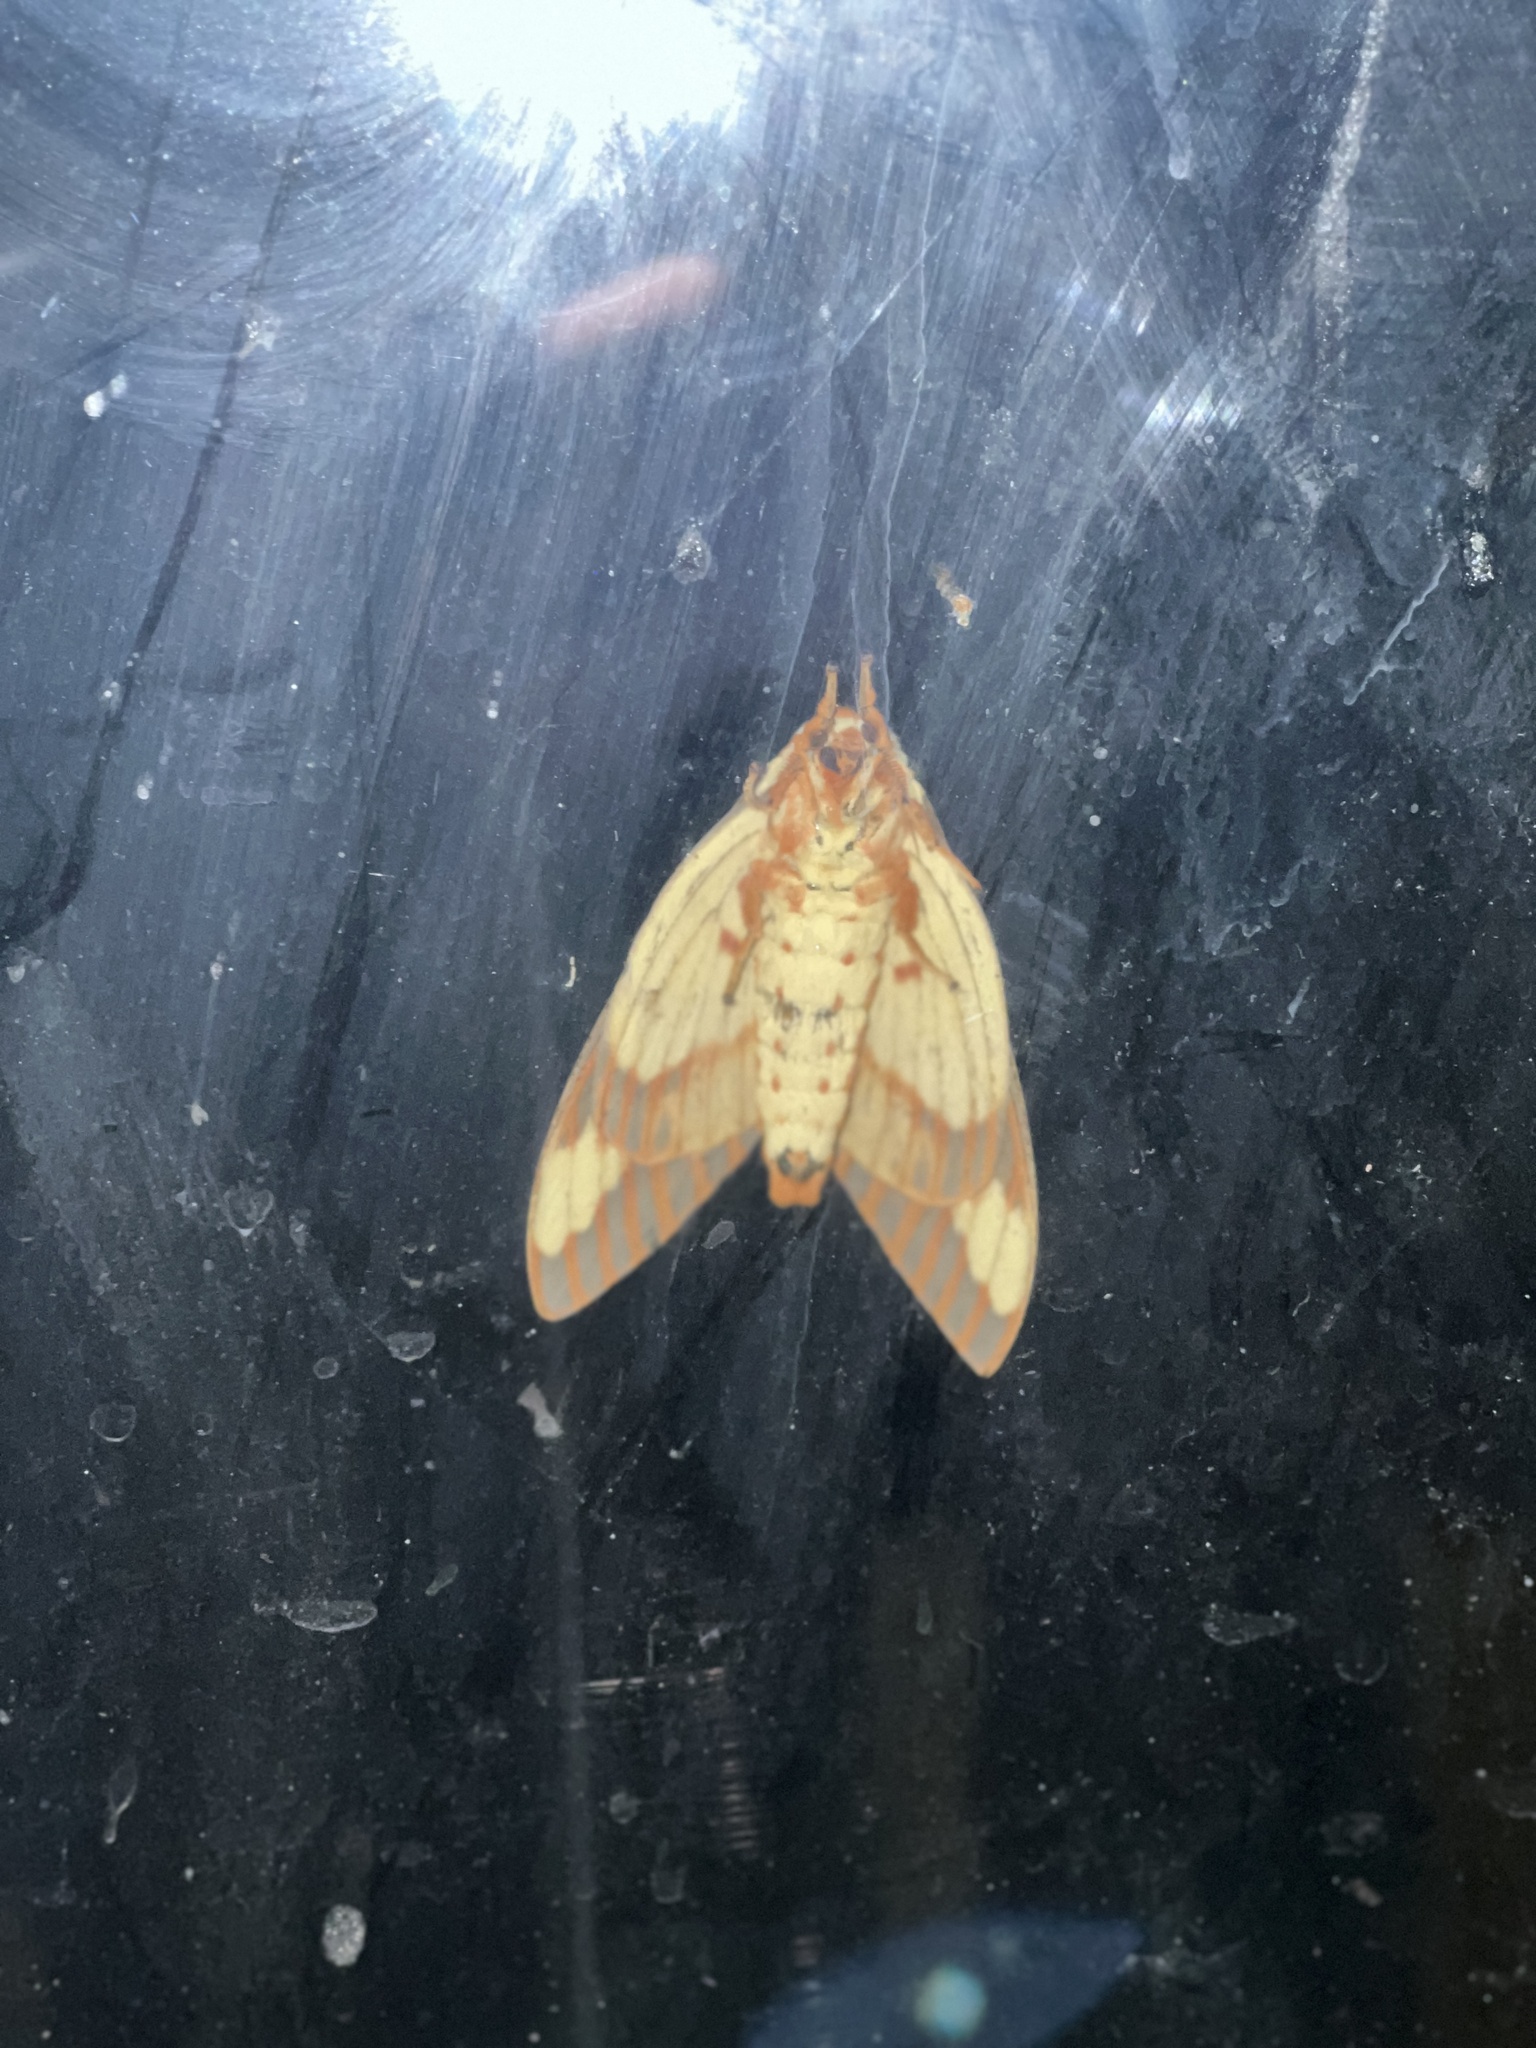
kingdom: Animalia
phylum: Arthropoda
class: Insecta
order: Lepidoptera
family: Saturniidae
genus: Citheronia
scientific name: Citheronia regalis
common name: Hickory horned devil
